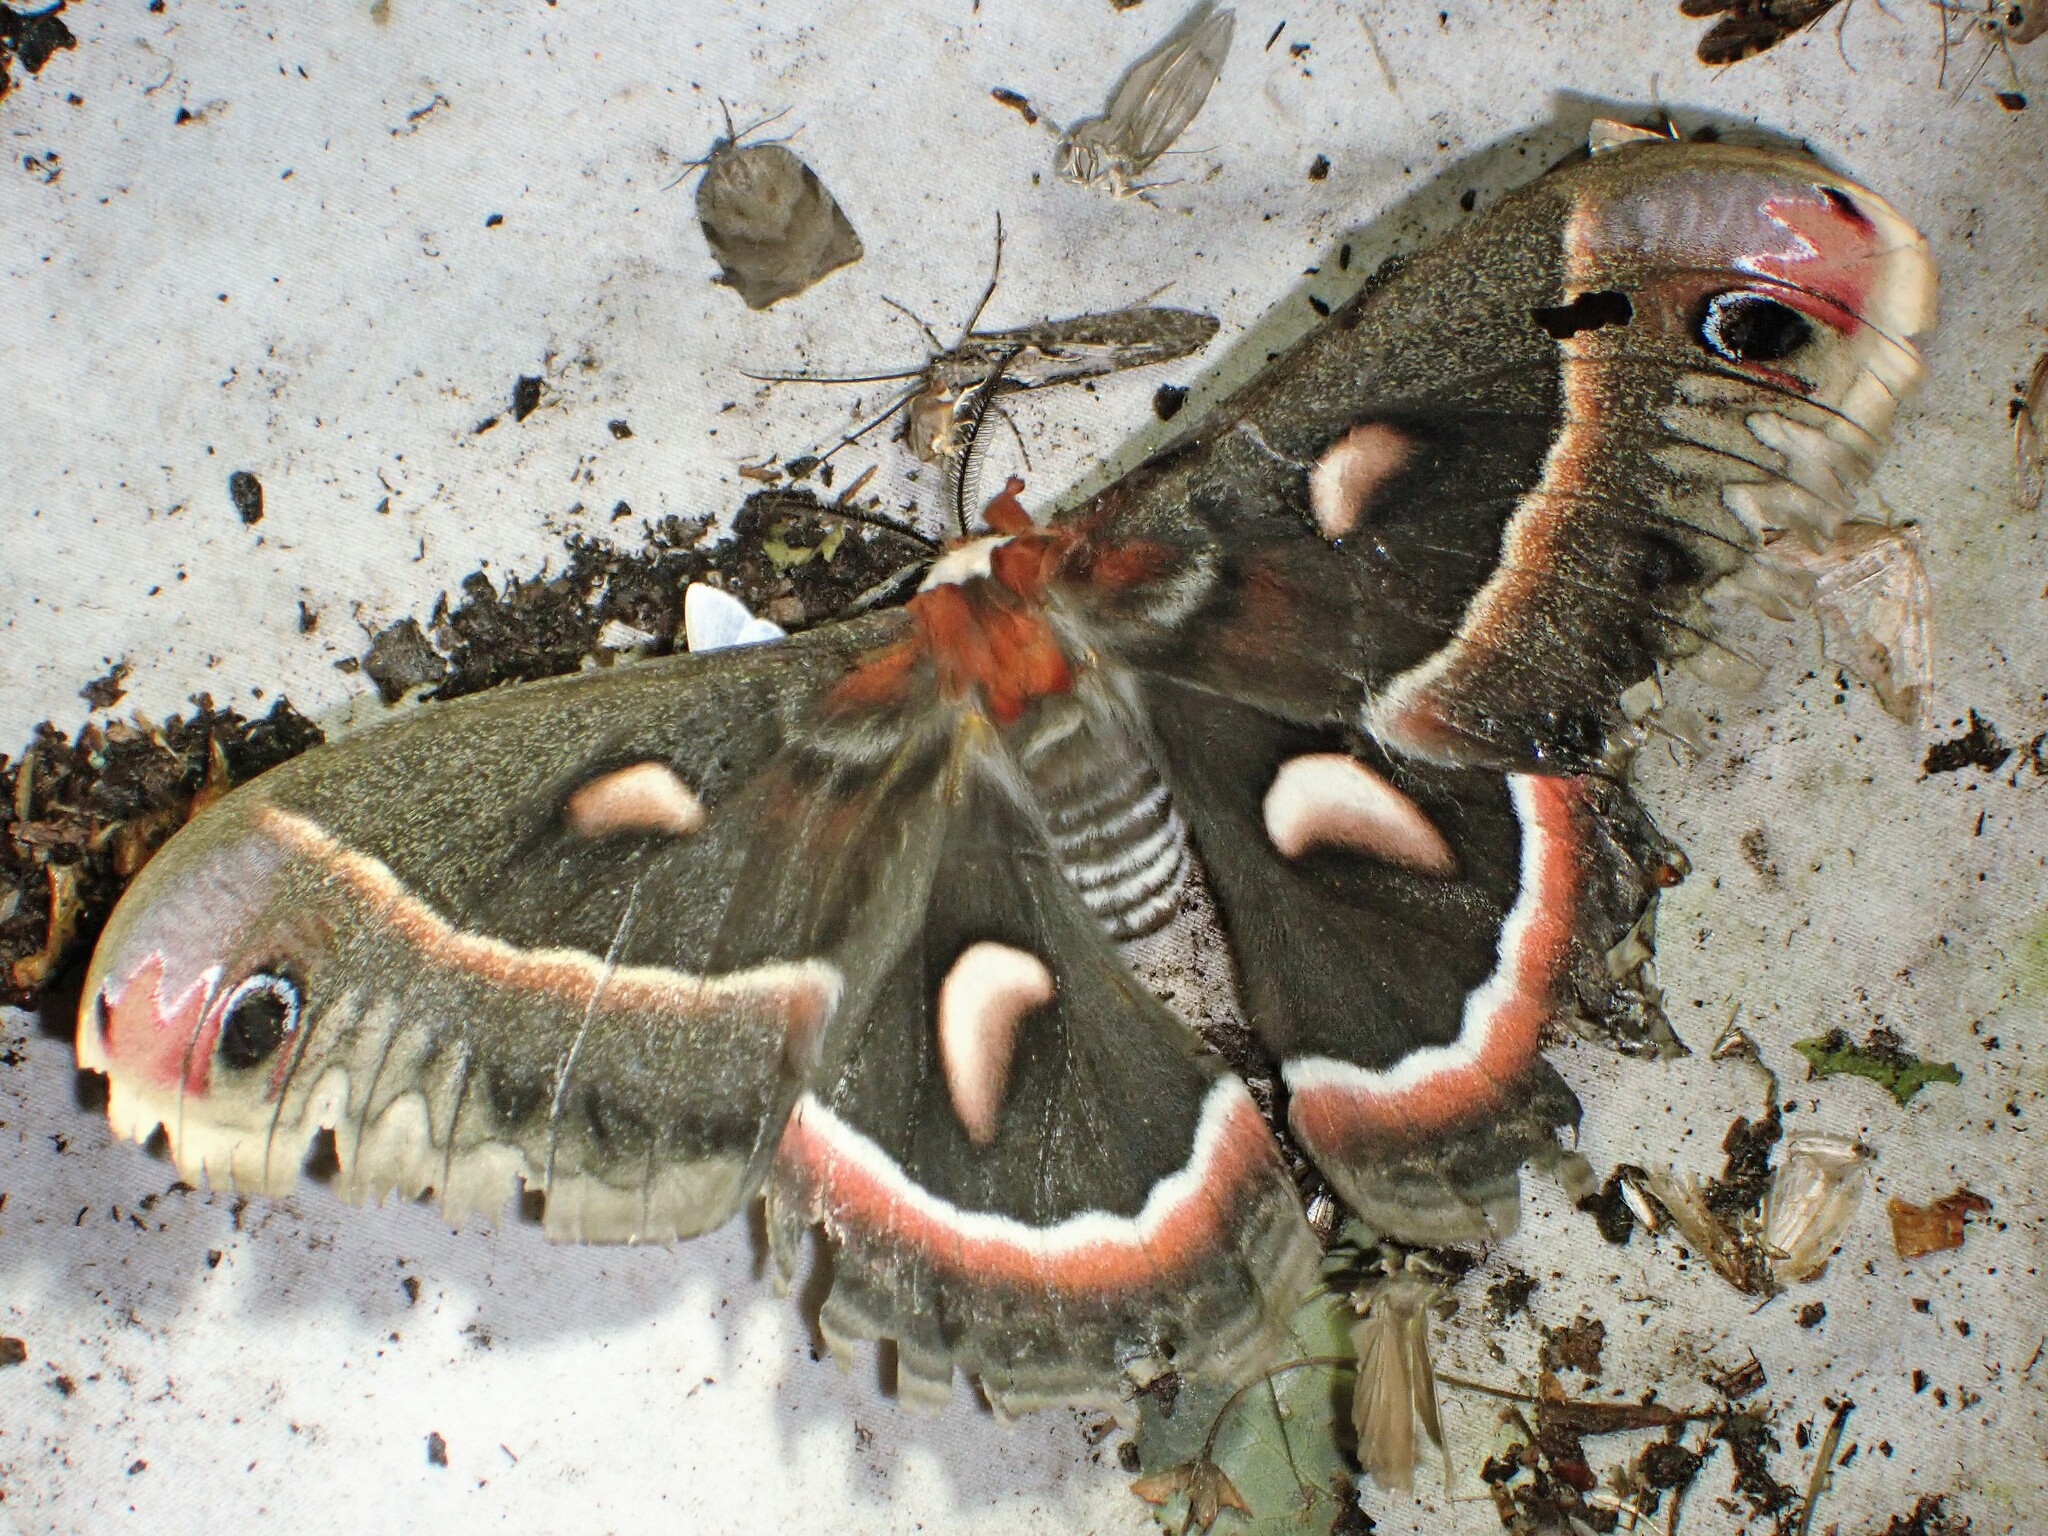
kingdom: Animalia
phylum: Arthropoda
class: Insecta
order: Lepidoptera
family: Saturniidae
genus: Hyalophora
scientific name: Hyalophora cecropia
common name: Cecropia silkmoth
